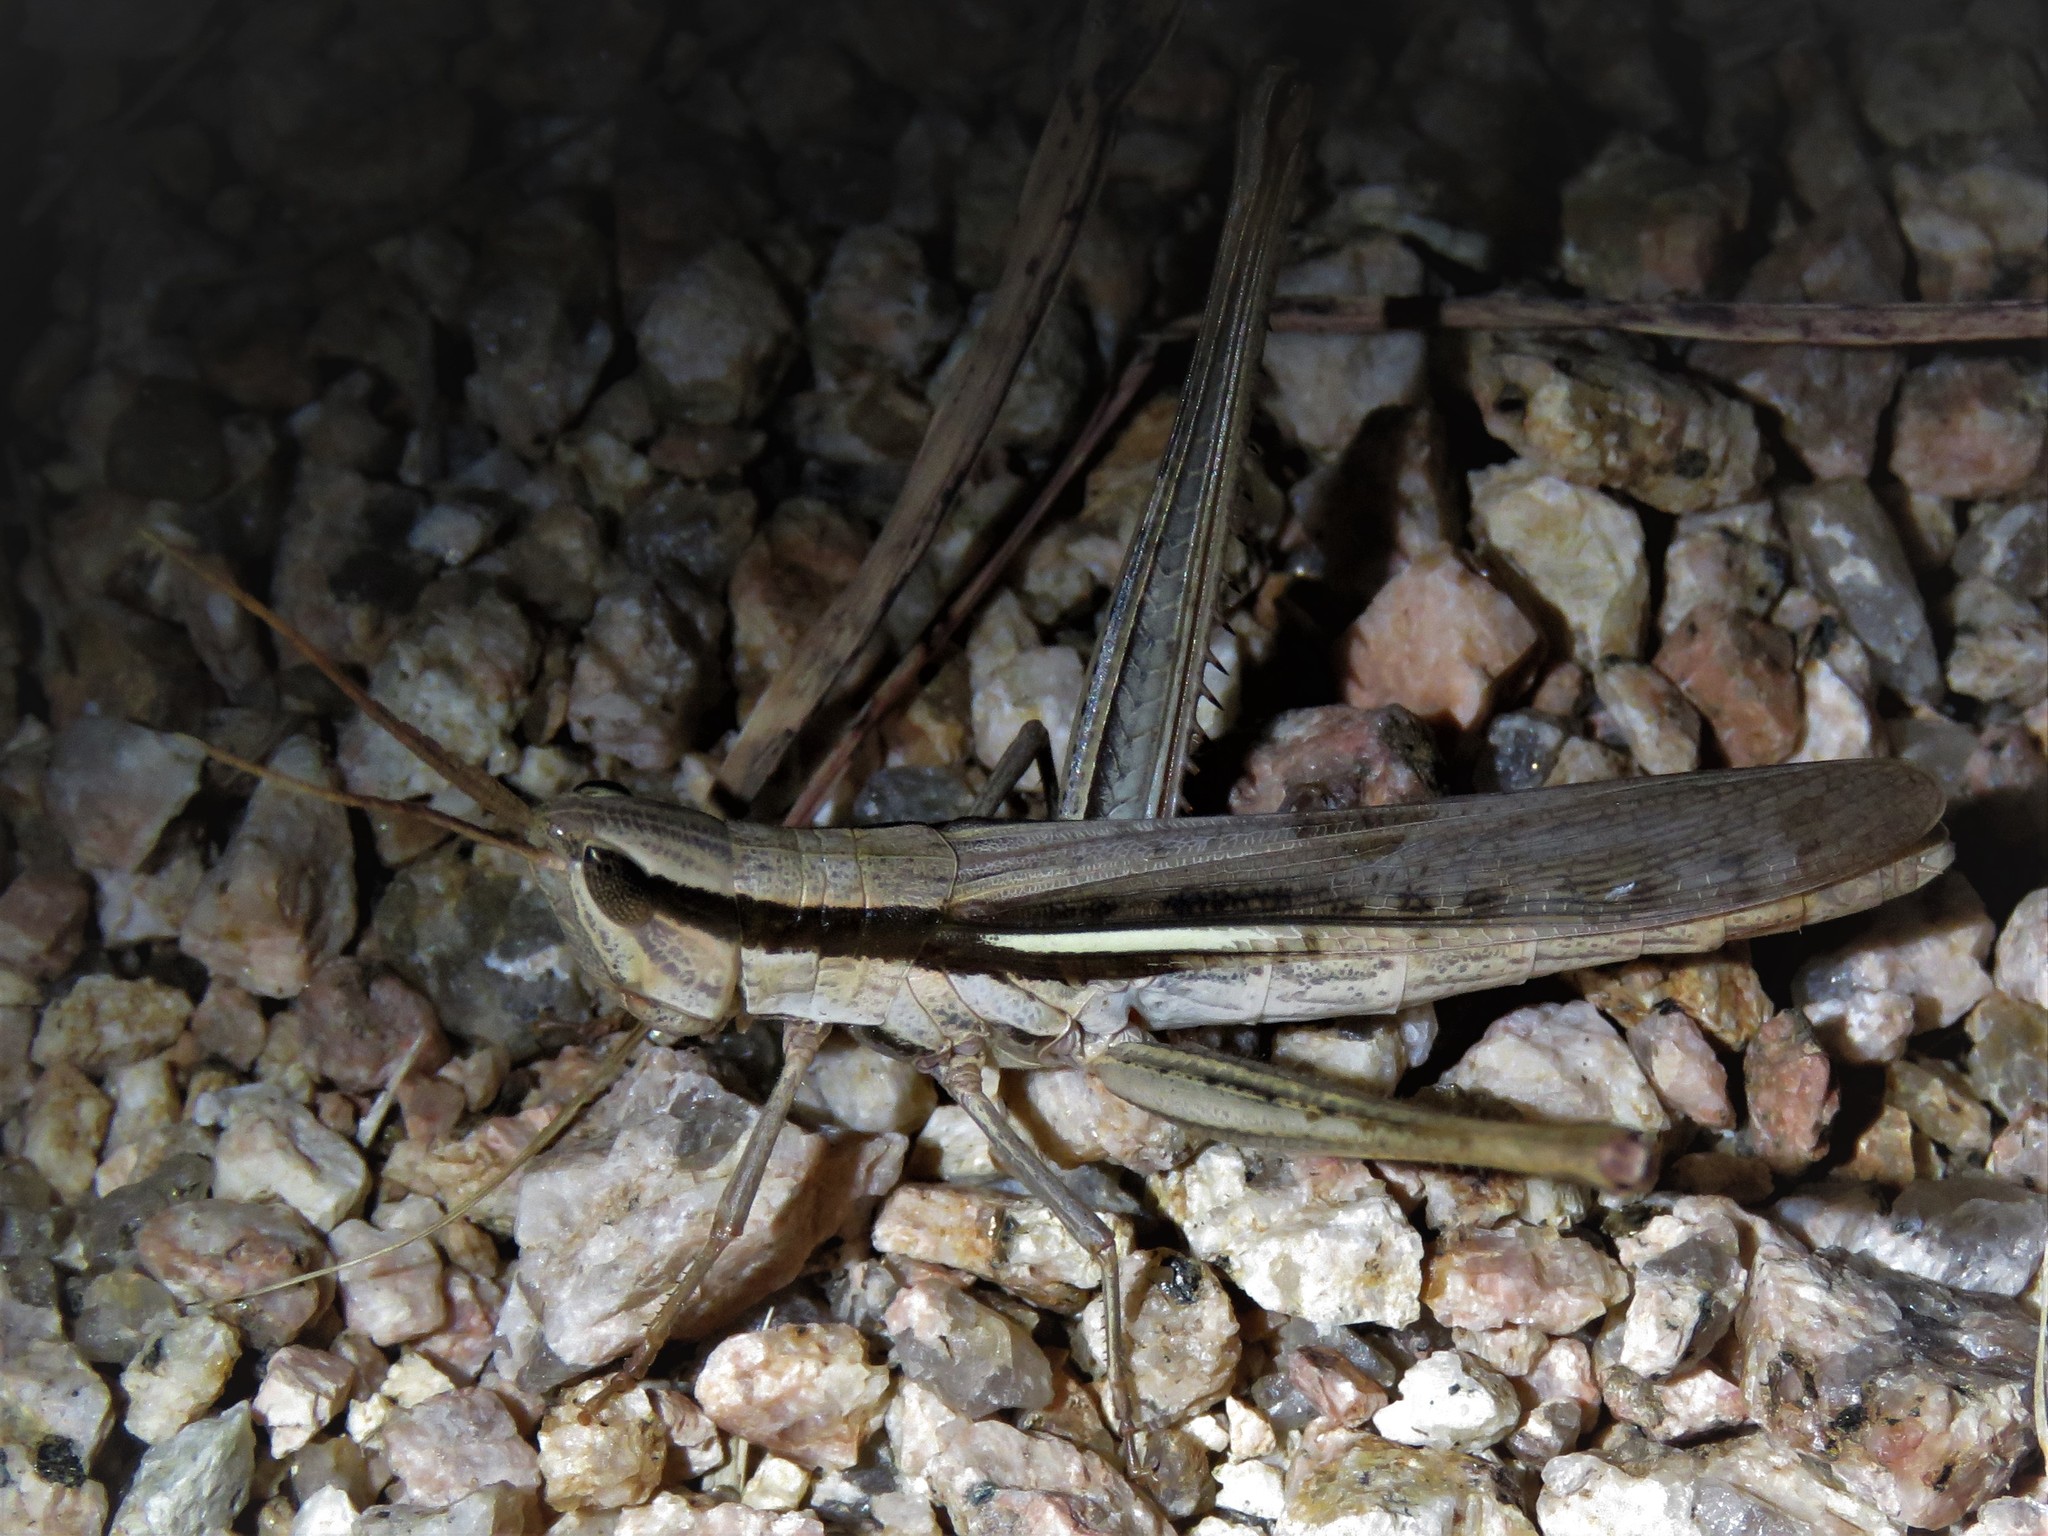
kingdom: Animalia
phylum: Arthropoda
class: Insecta
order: Orthoptera
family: Acrididae
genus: Mermiria
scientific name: Mermiria bivittata
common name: Two-striped mermiria grasshopper
